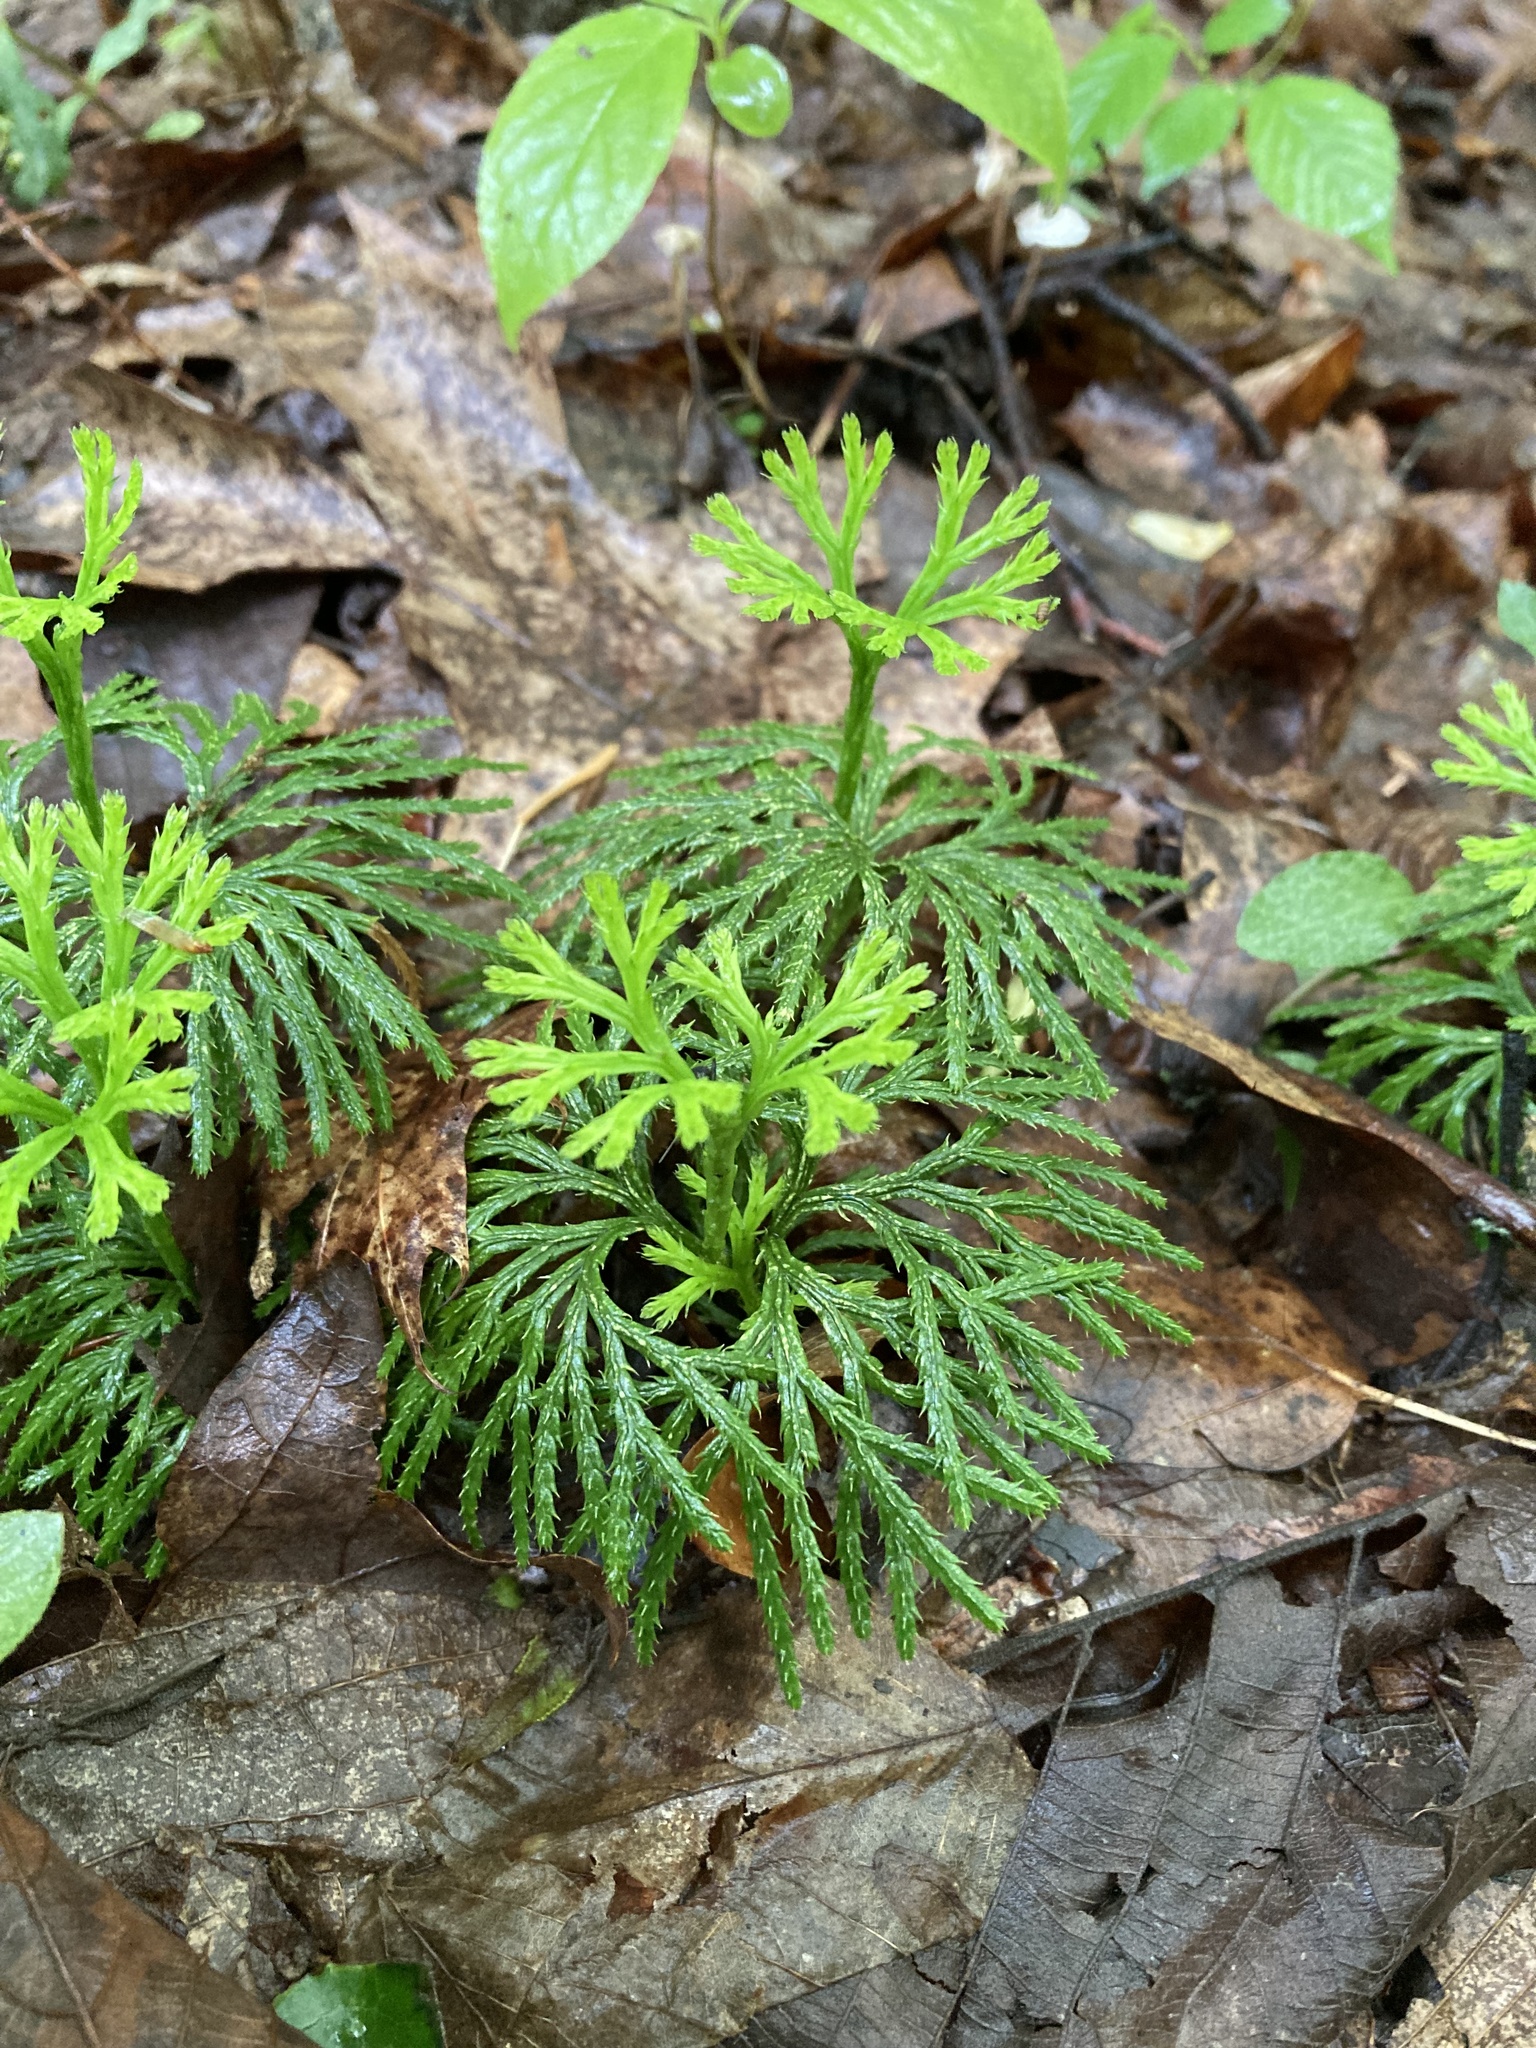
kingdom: Plantae
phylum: Tracheophyta
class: Lycopodiopsida
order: Lycopodiales
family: Lycopodiaceae
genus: Diphasiastrum
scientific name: Diphasiastrum digitatum
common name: Southern running-pine
